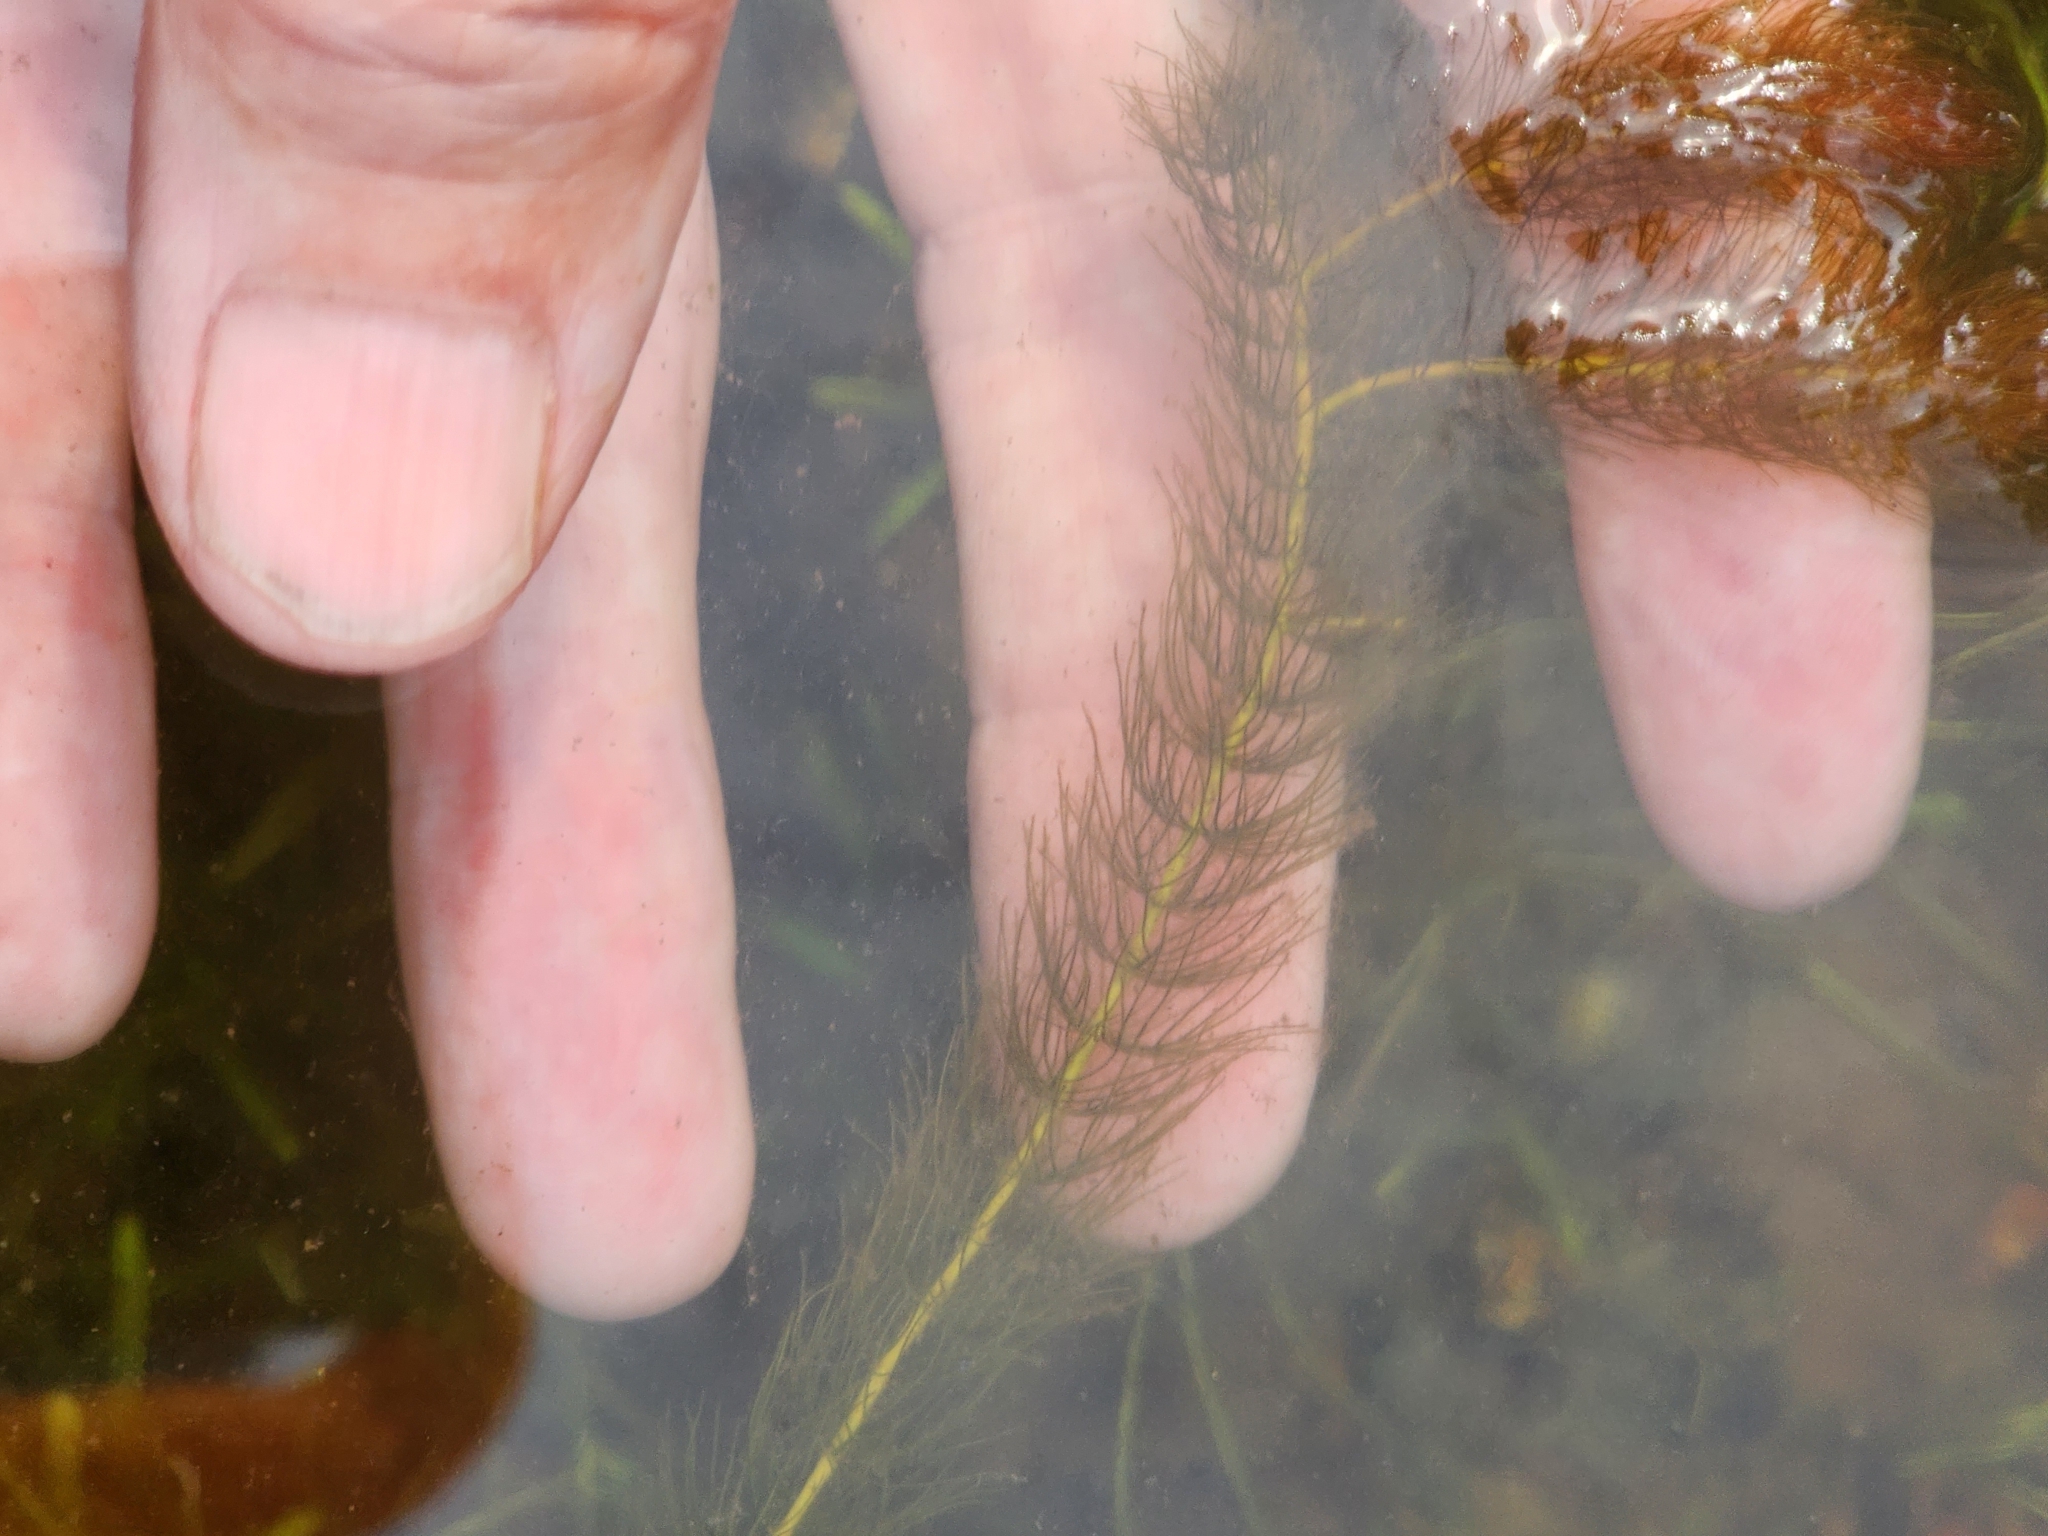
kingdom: Plantae
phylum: Tracheophyta
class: Magnoliopsida
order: Saxifragales
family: Haloragaceae
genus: Myriophyllum
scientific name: Myriophyllum alterniflorum
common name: Alternate water-milfoil
